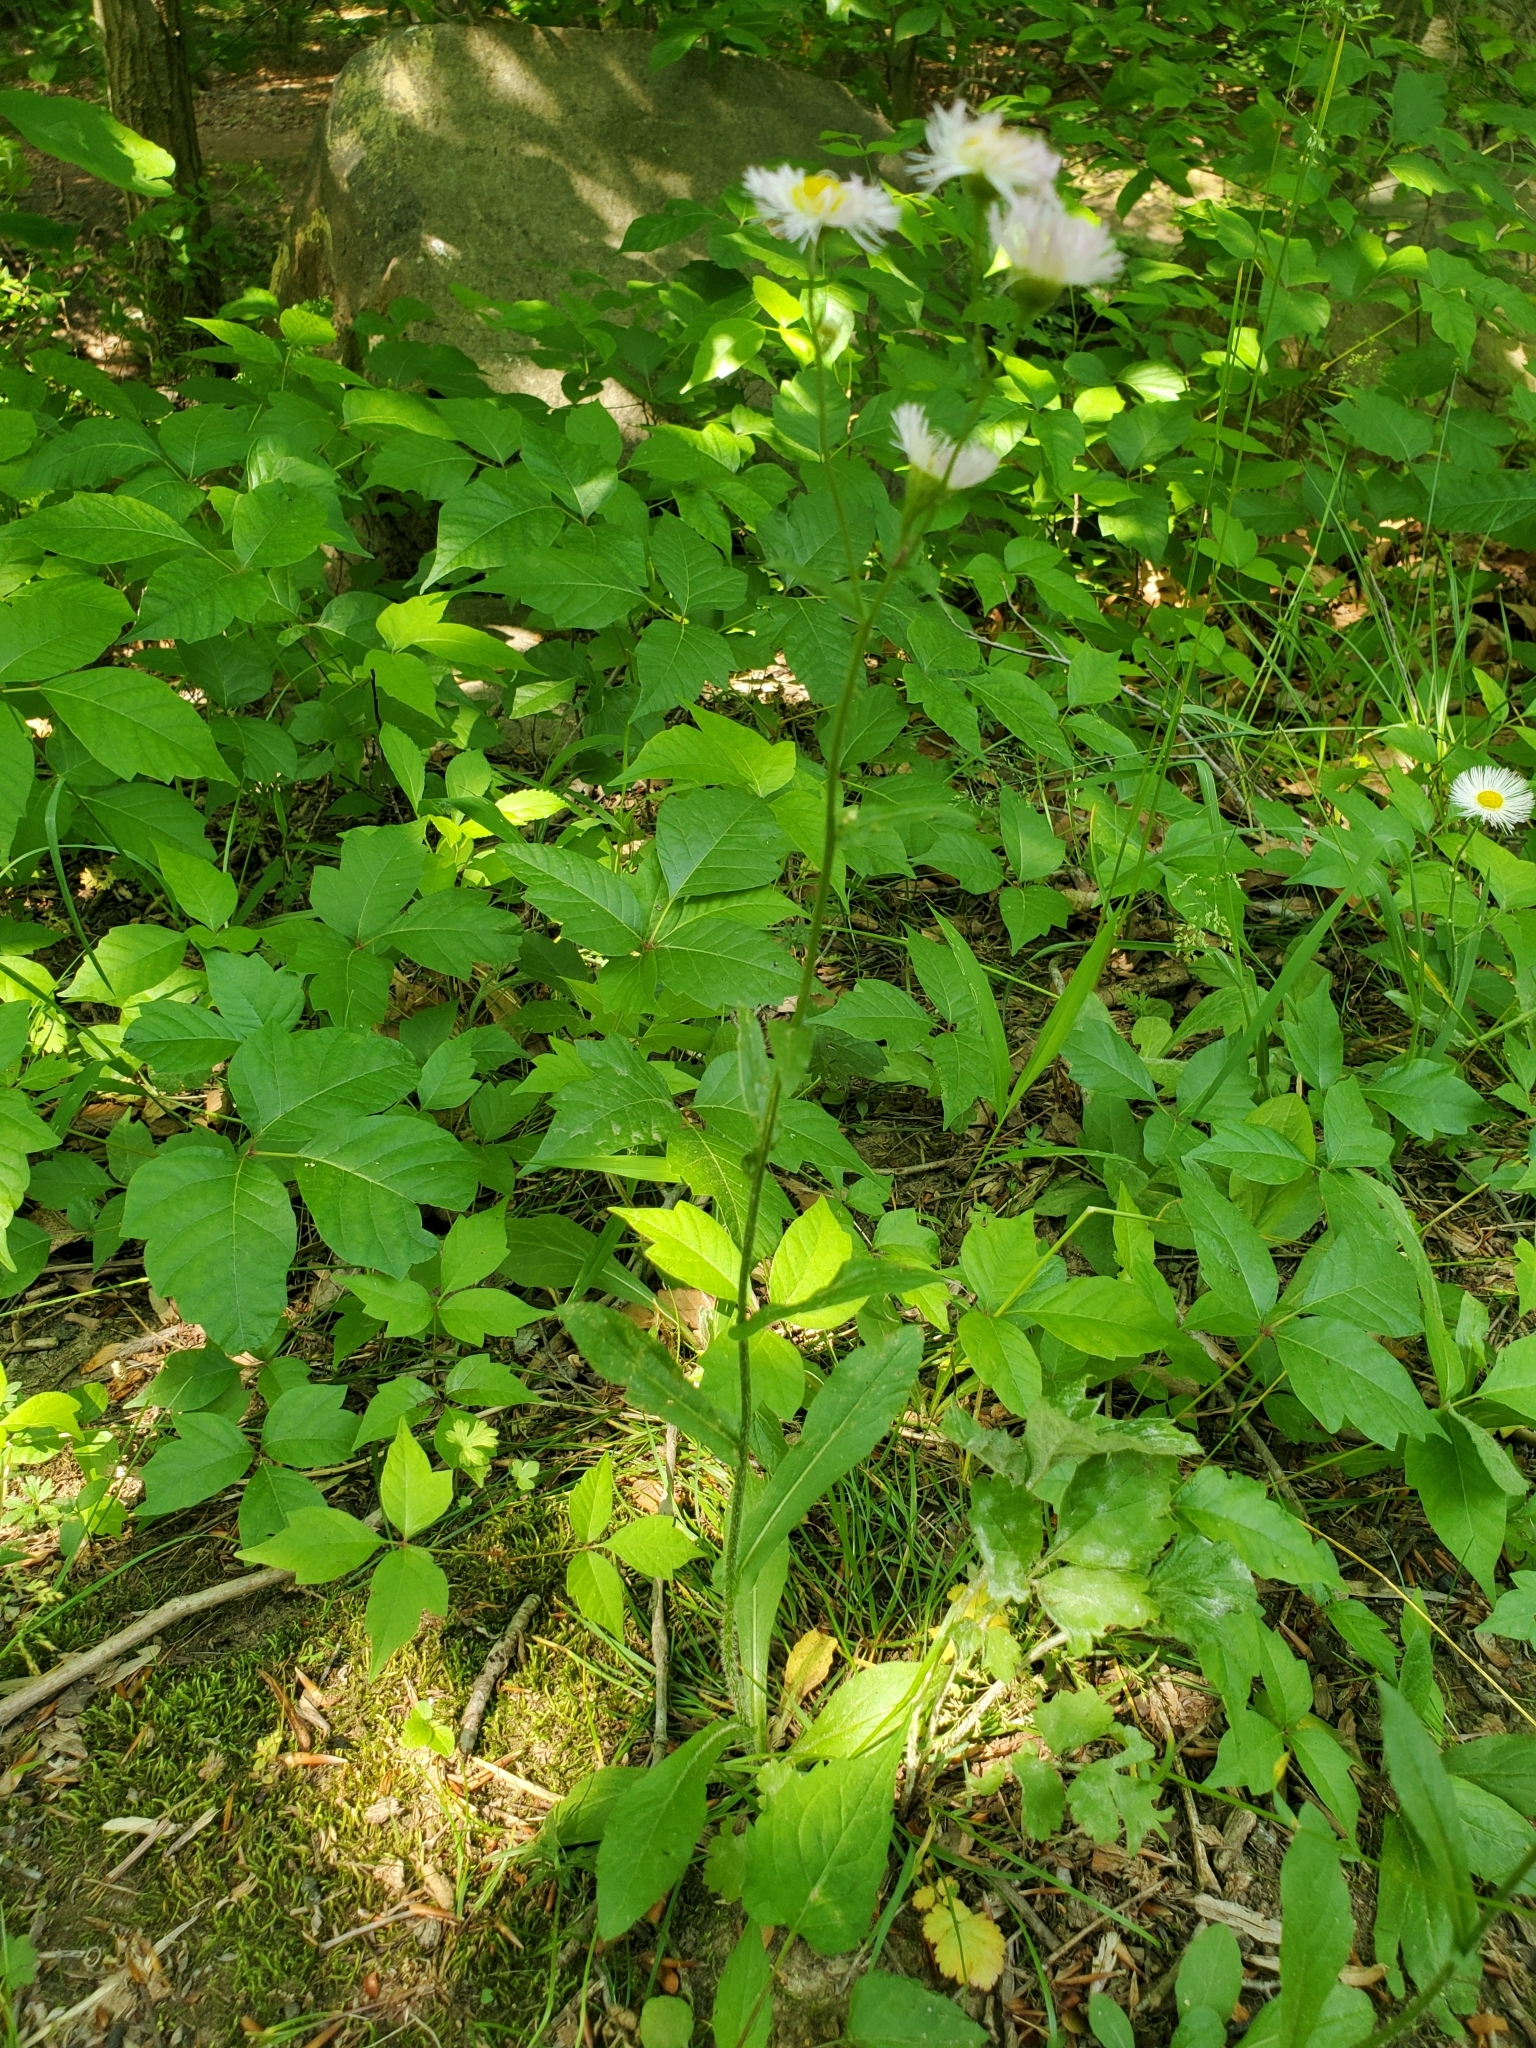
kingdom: Plantae
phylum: Tracheophyta
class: Magnoliopsida
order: Asterales
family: Asteraceae
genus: Erigeron
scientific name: Erigeron philadelphicus
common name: Robin's-plantain
